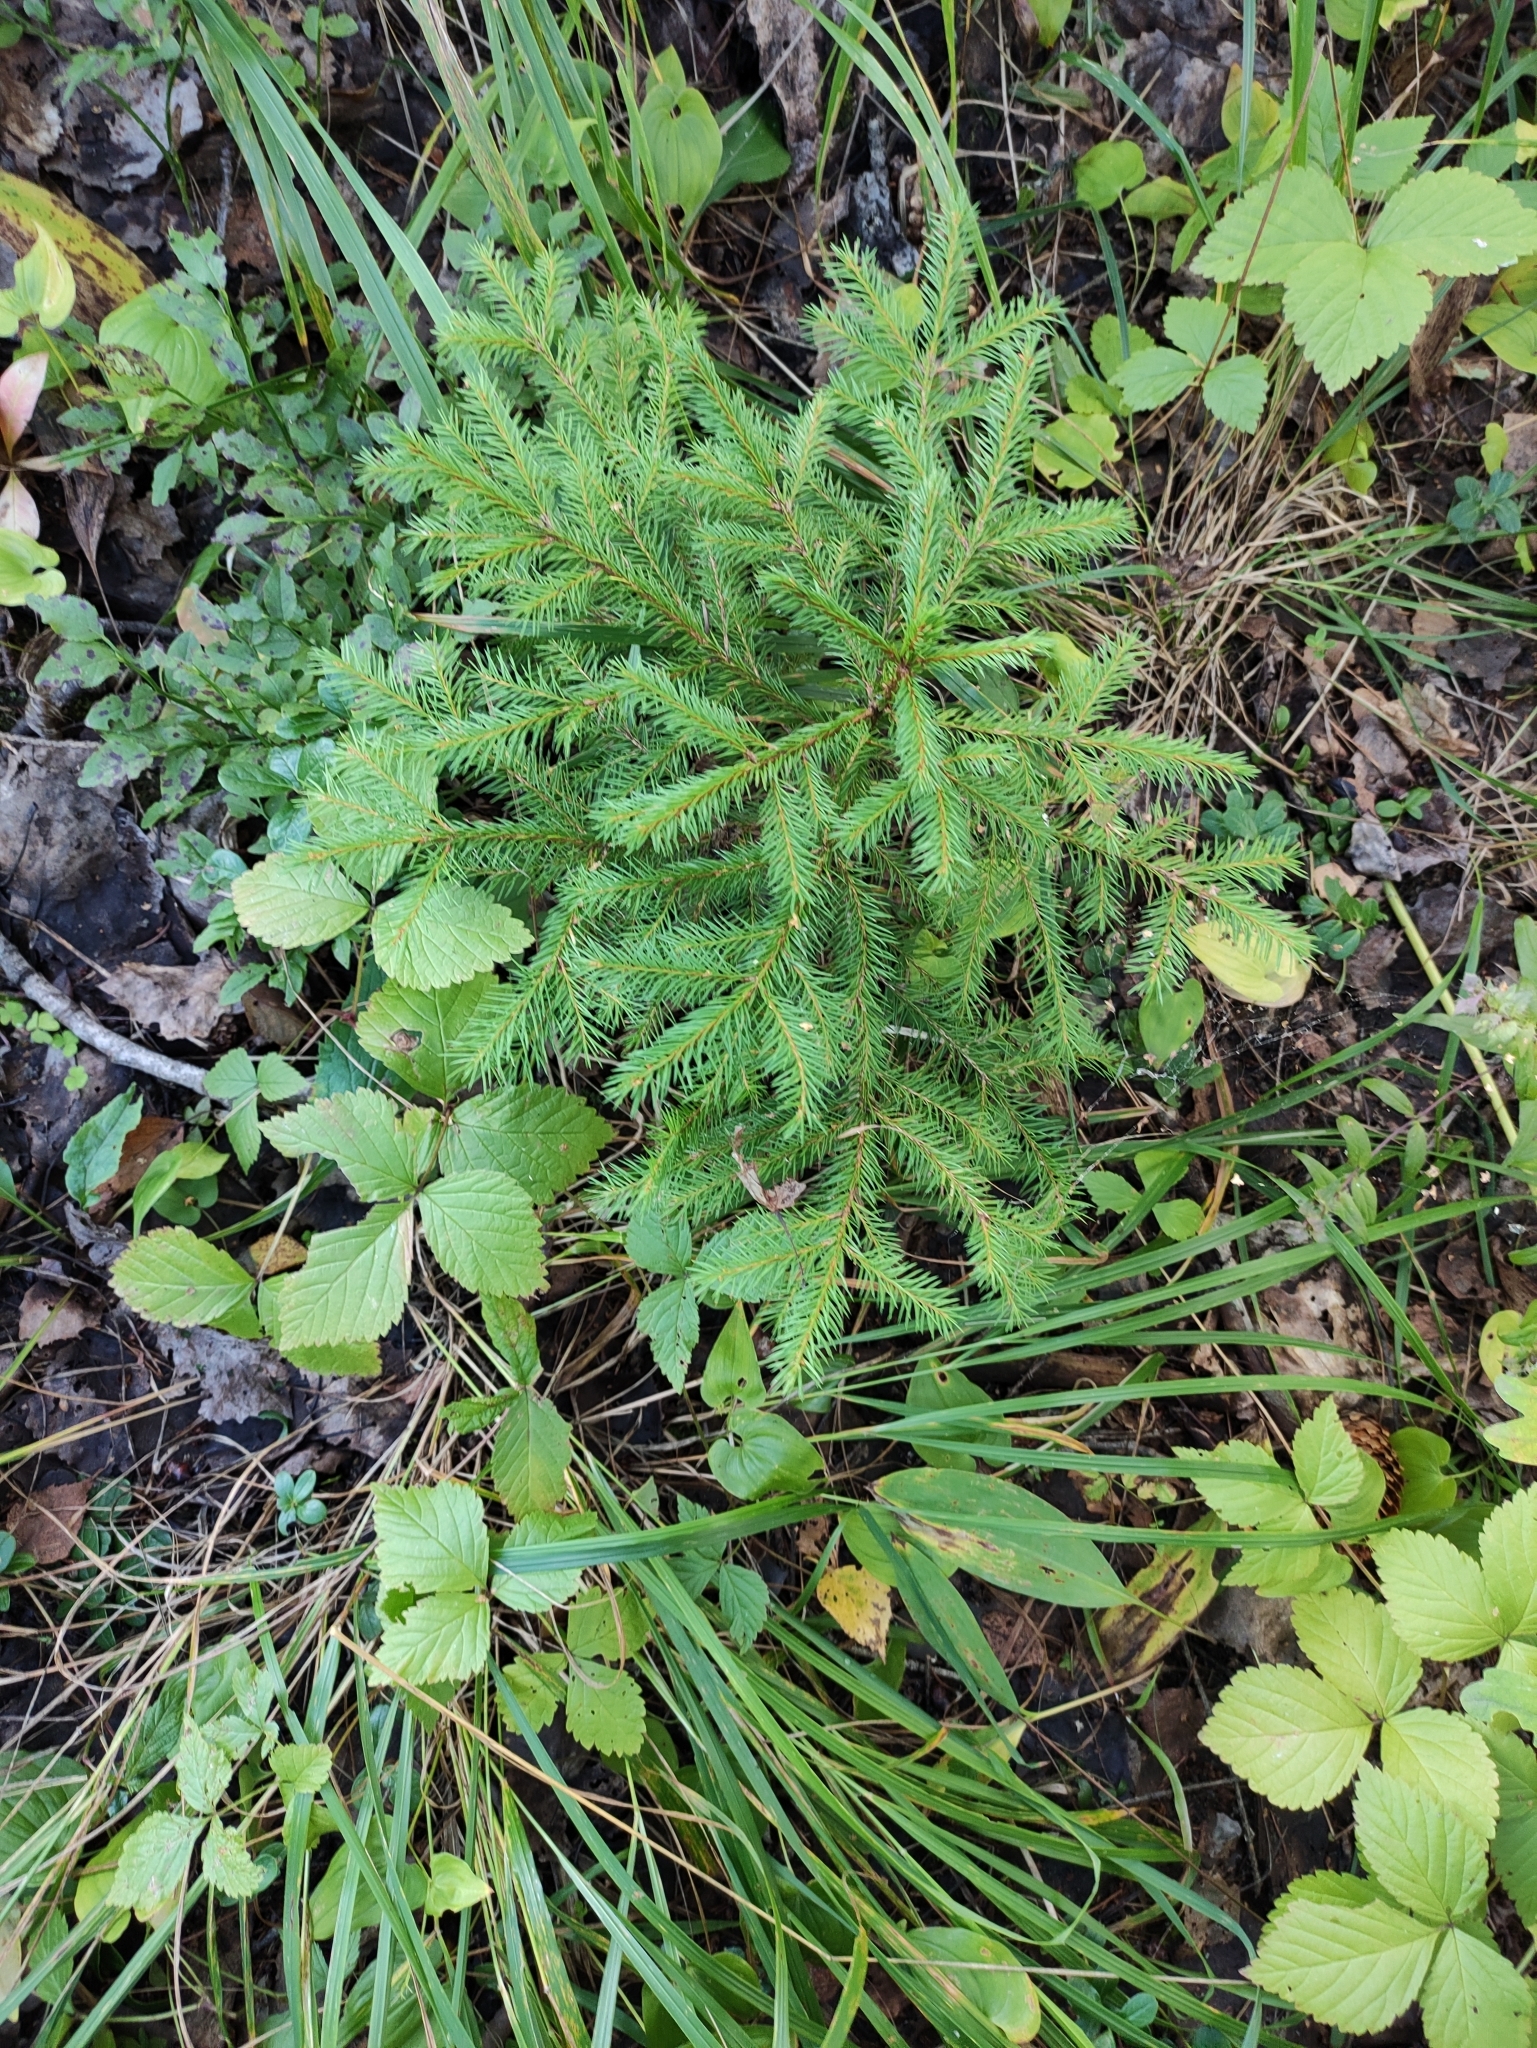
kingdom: Plantae
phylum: Tracheophyta
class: Pinopsida
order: Pinales
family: Pinaceae
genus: Picea
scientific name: Picea abies
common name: Norway spruce
